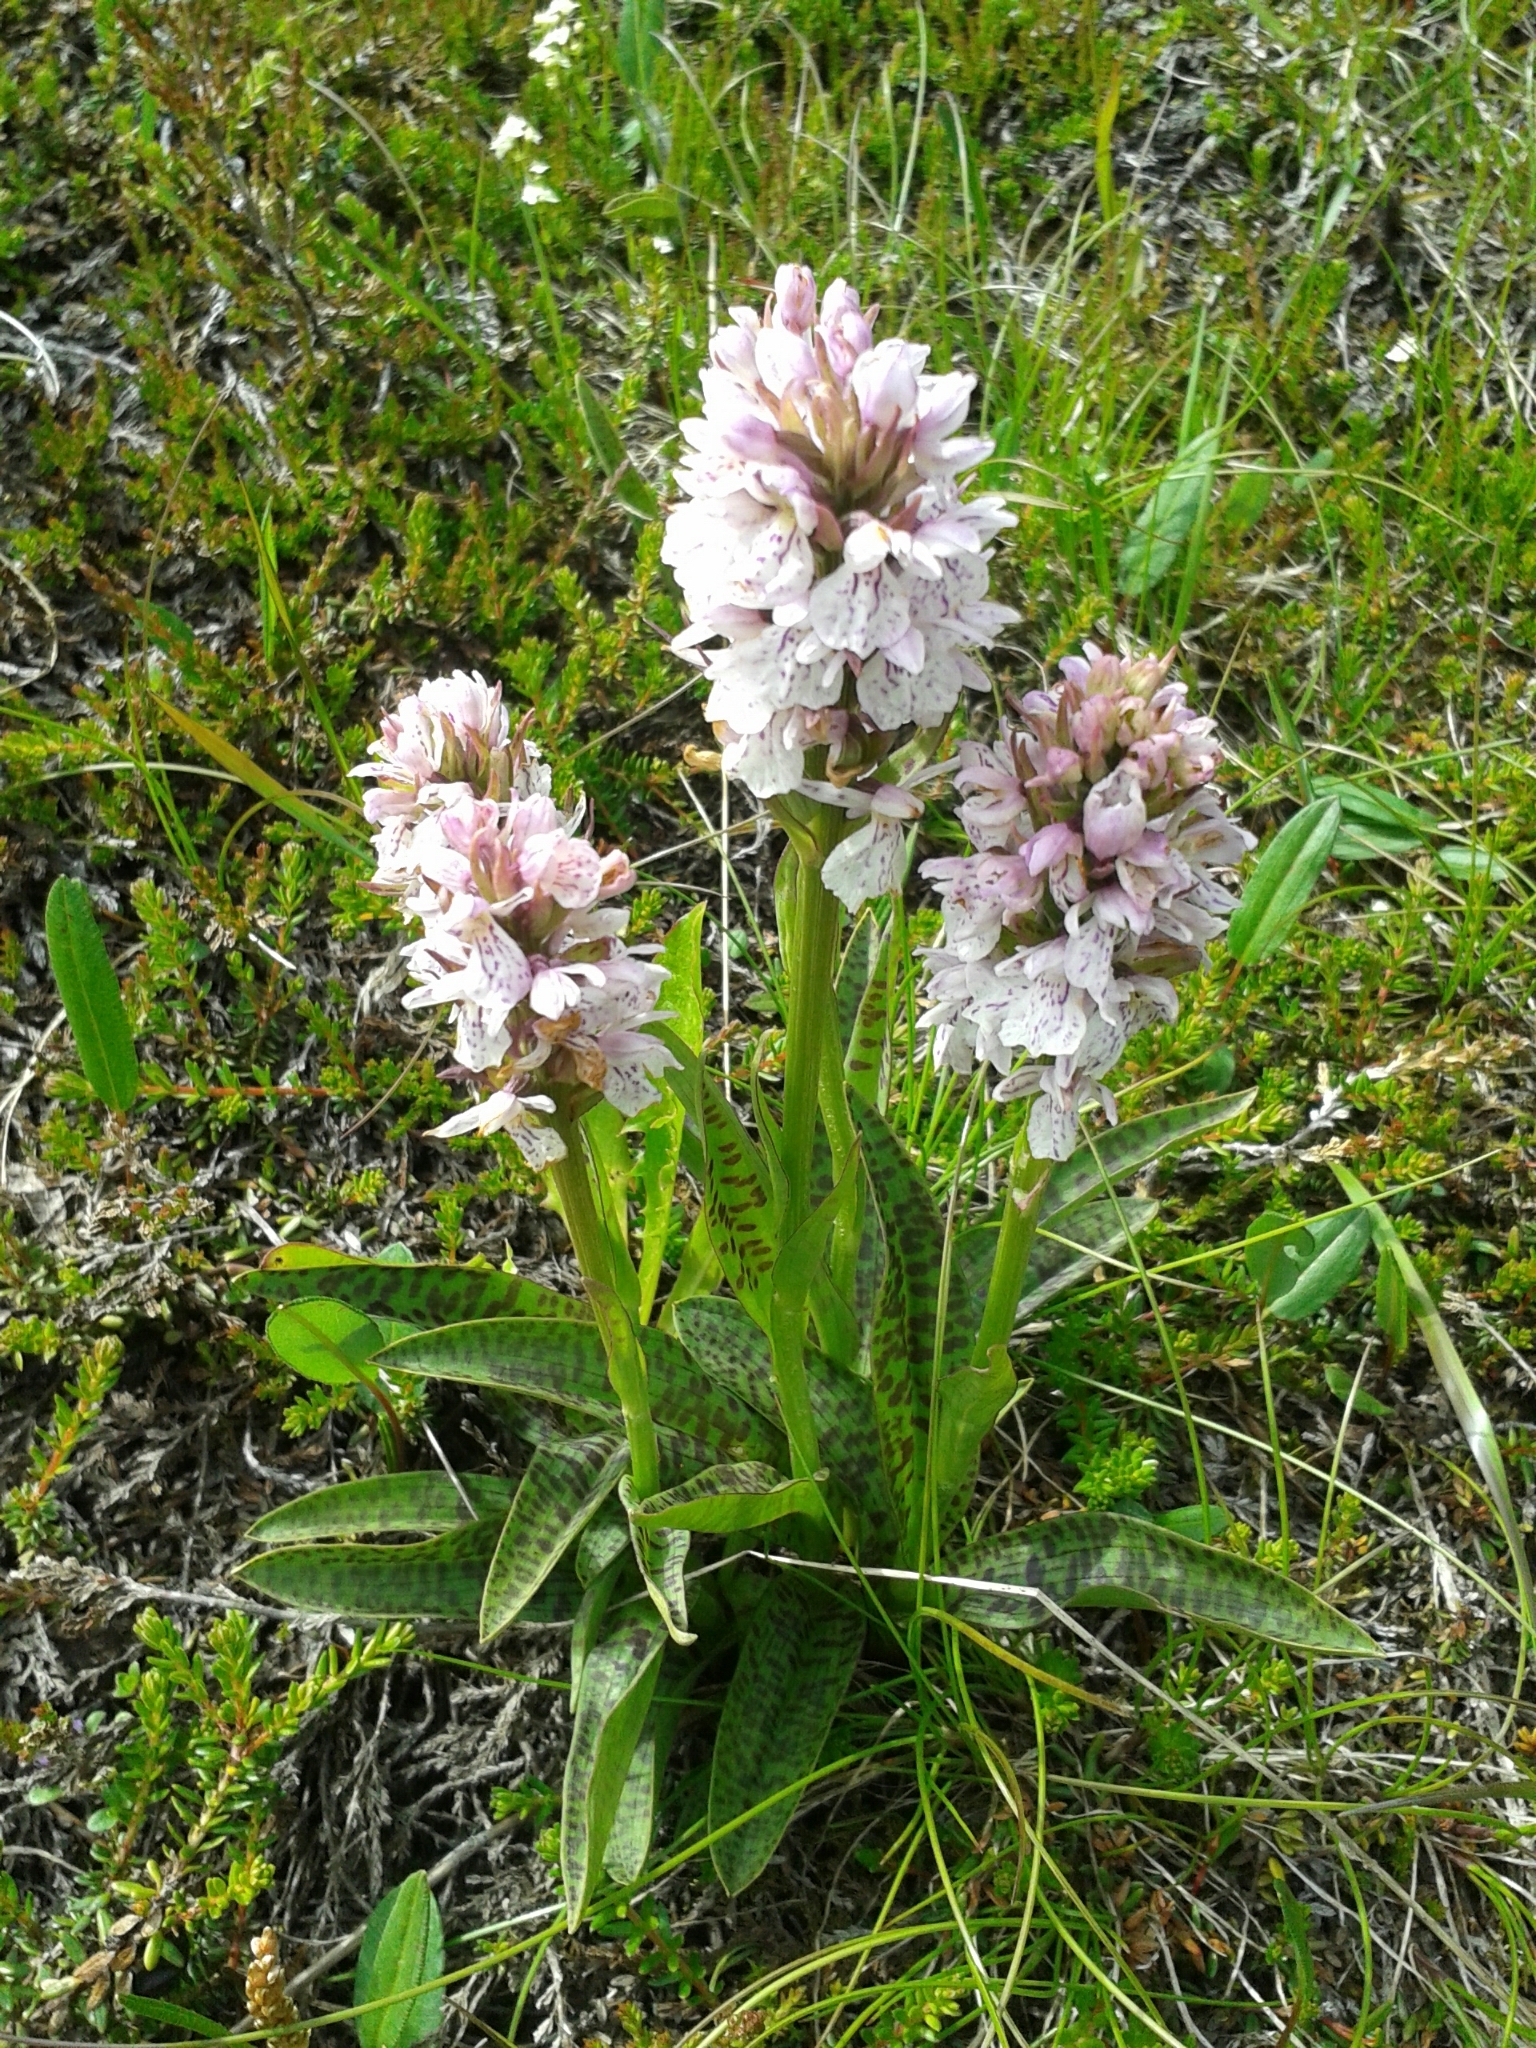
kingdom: Plantae
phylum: Tracheophyta
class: Liliopsida
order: Asparagales
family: Orchidaceae
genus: Dactylorhiza
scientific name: Dactylorhiza maculata
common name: Heath spotted-orchid
